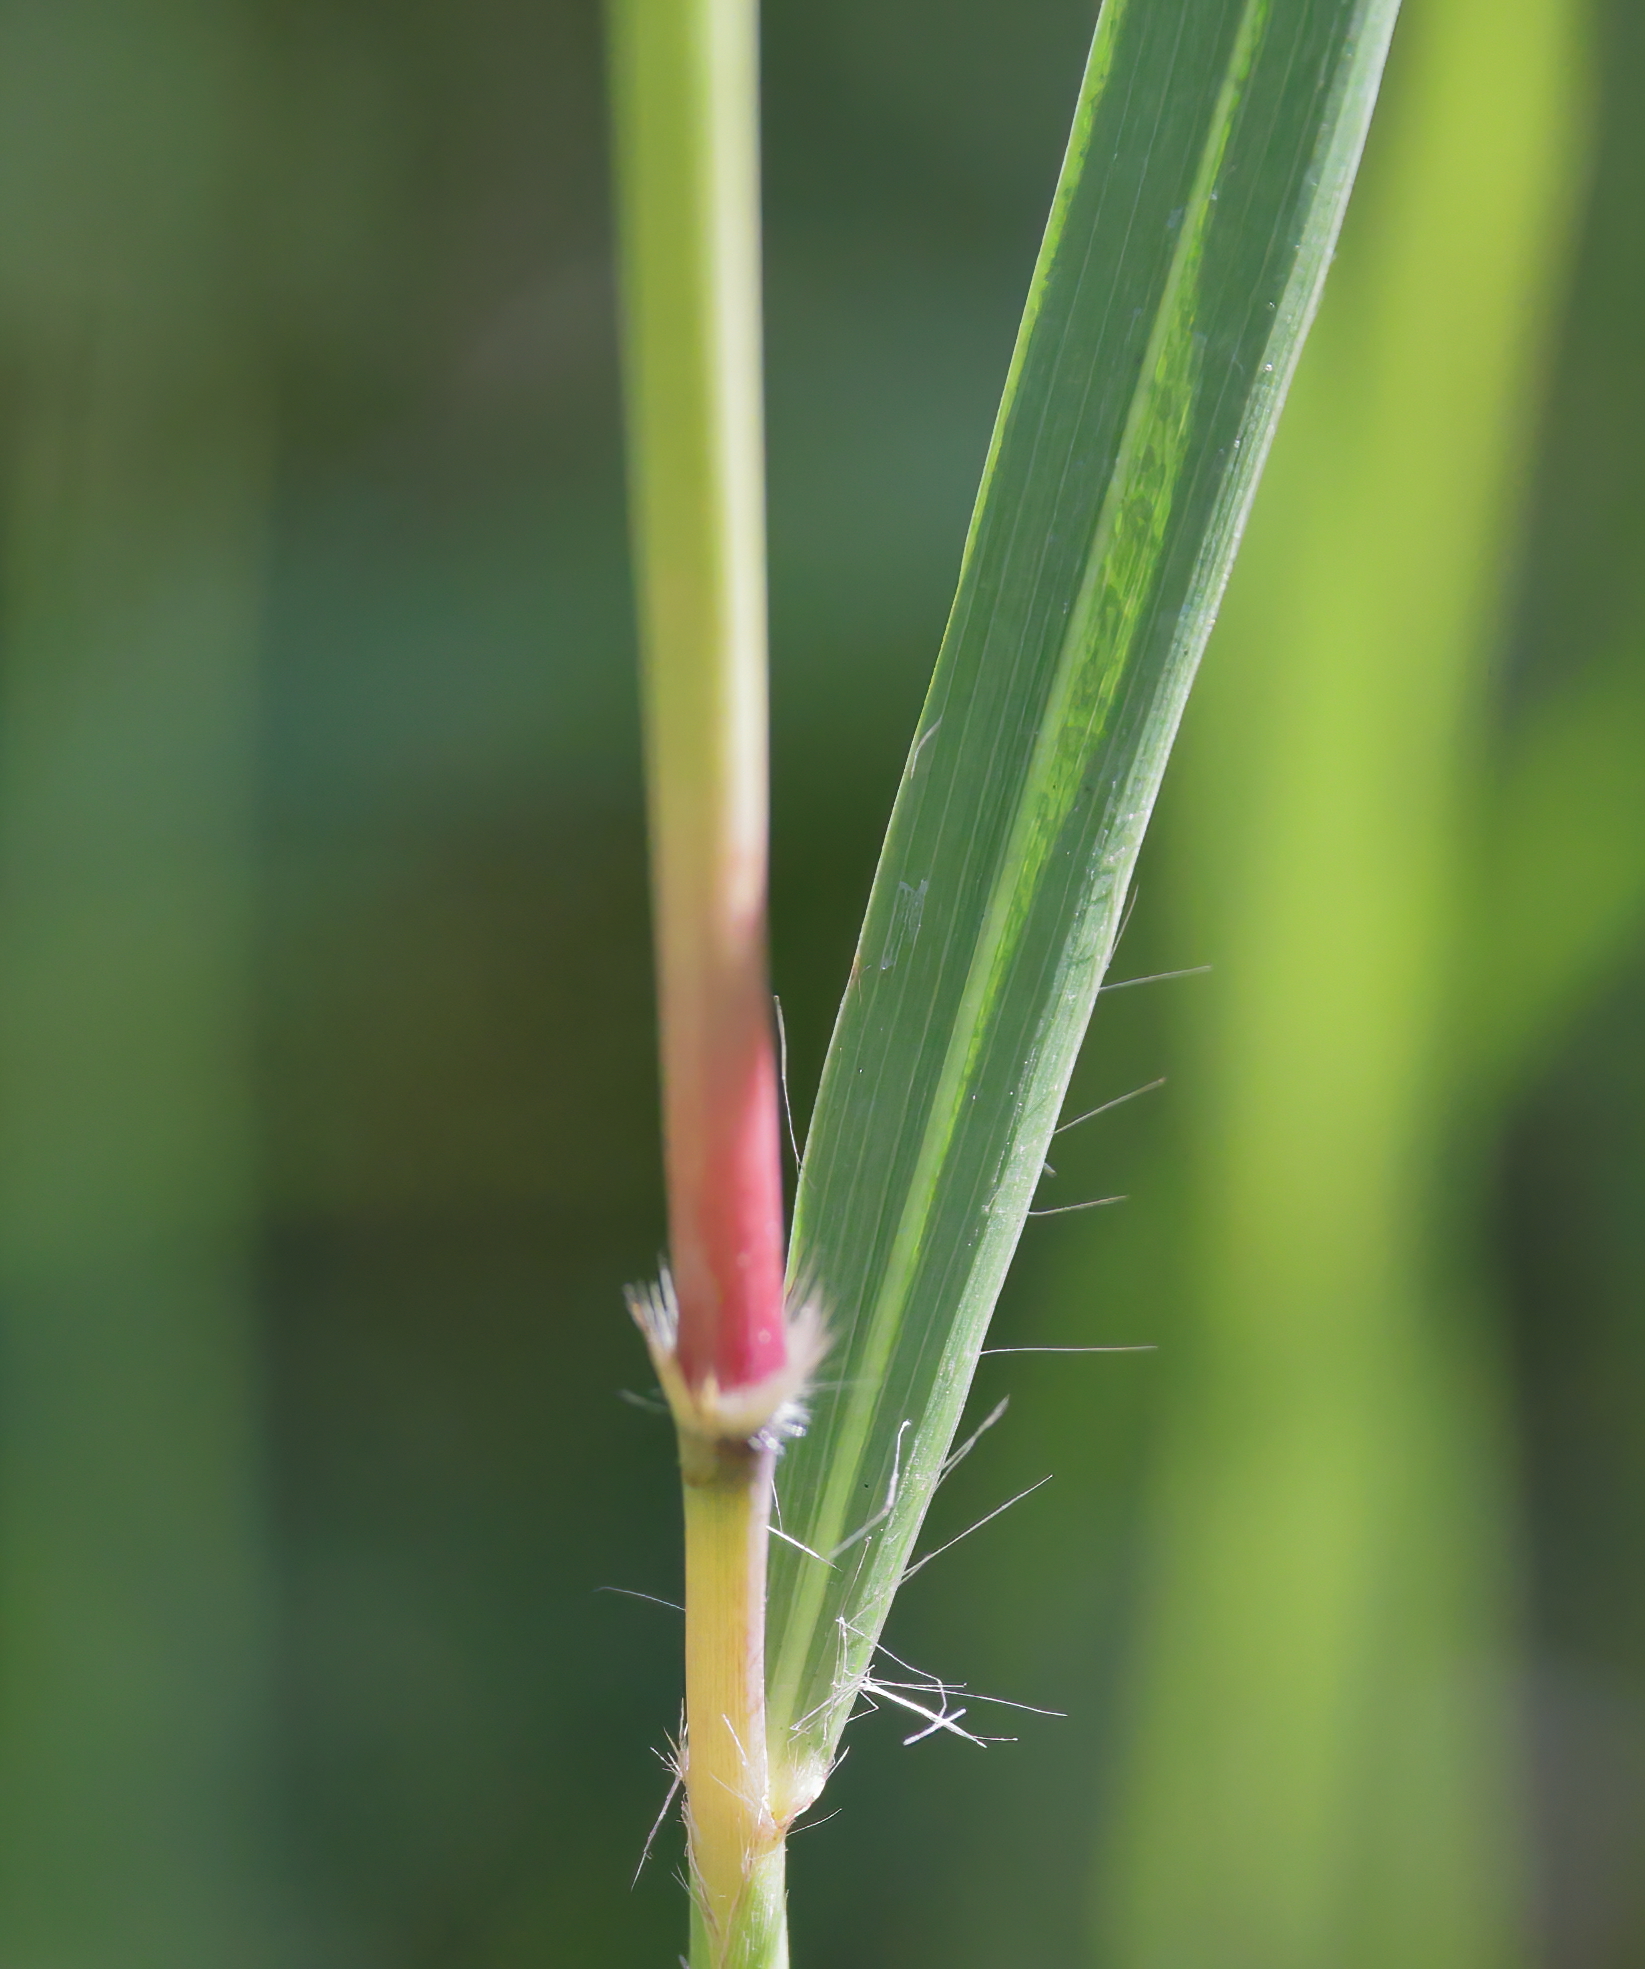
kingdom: Plantae
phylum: Tracheophyta
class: Liliopsida
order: Poales
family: Poaceae
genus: Erianthus
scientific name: Erianthus giganteus
